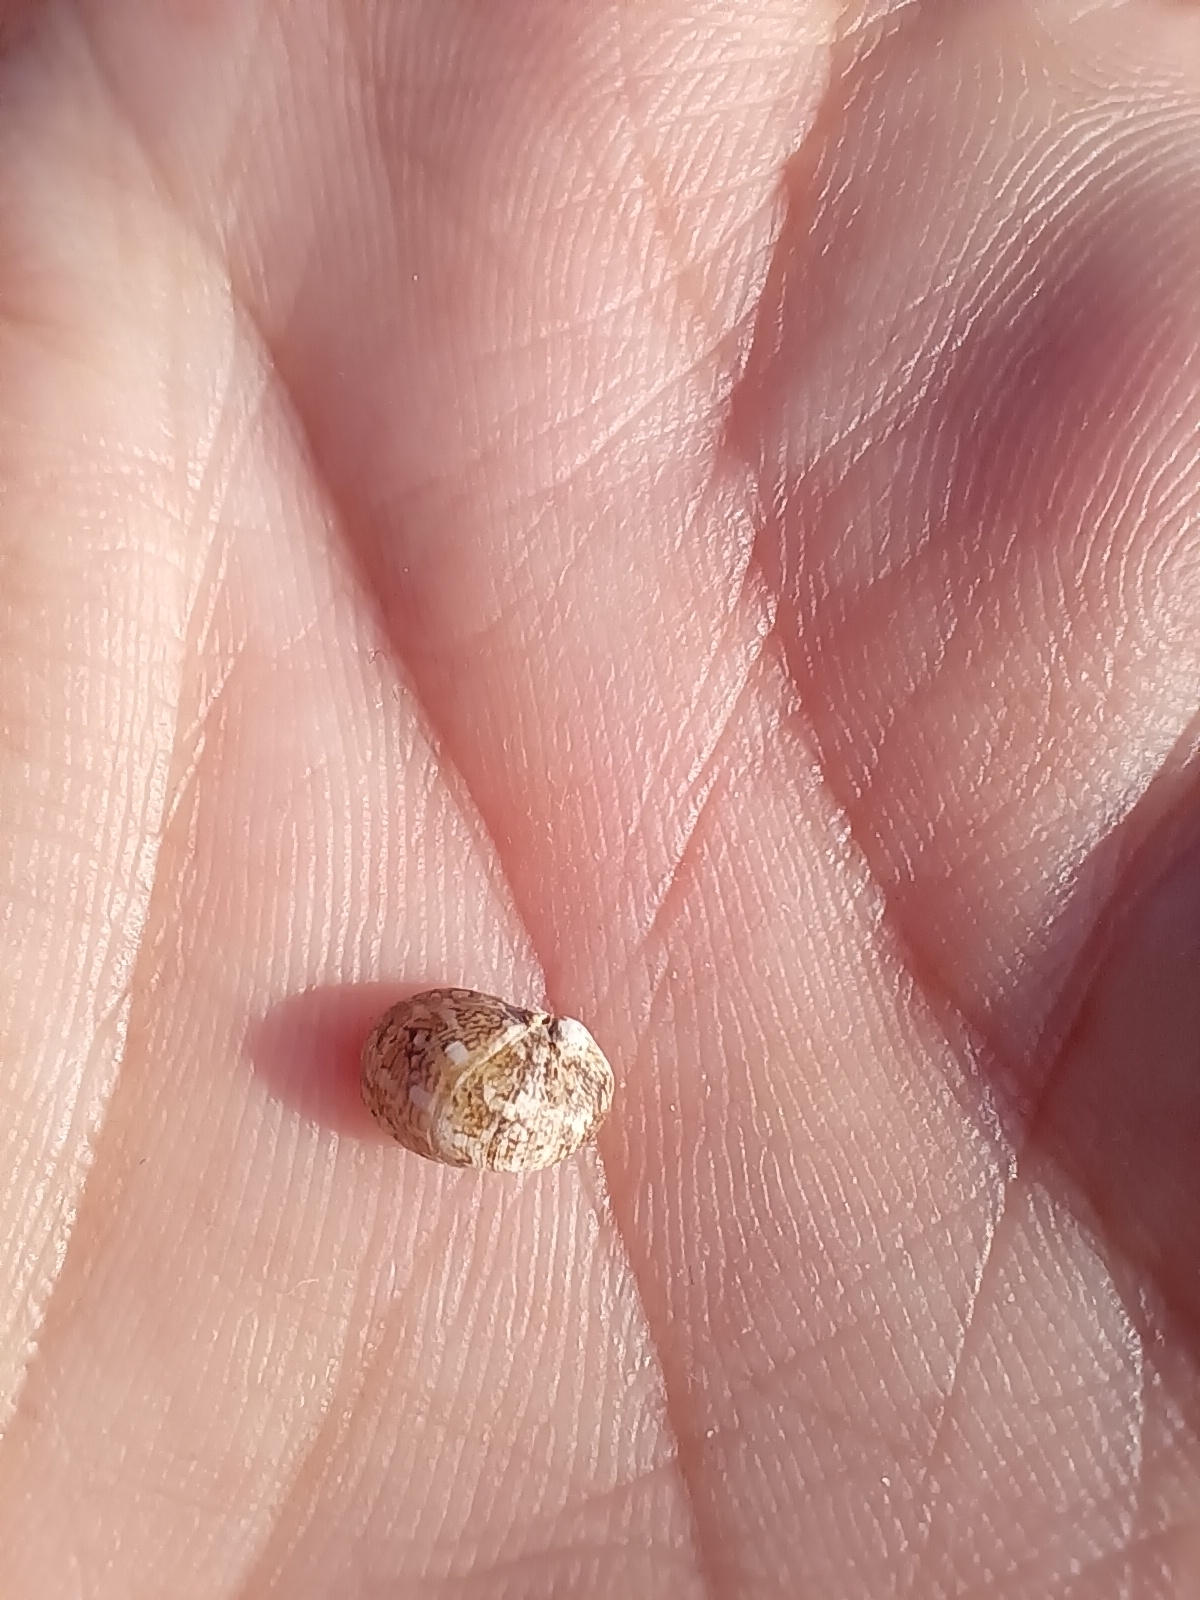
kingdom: Animalia
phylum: Mollusca
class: Gastropoda
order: Cycloneritida
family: Neritidae
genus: Theodoxus
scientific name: Theodoxus fluviatilis
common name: River nerite
